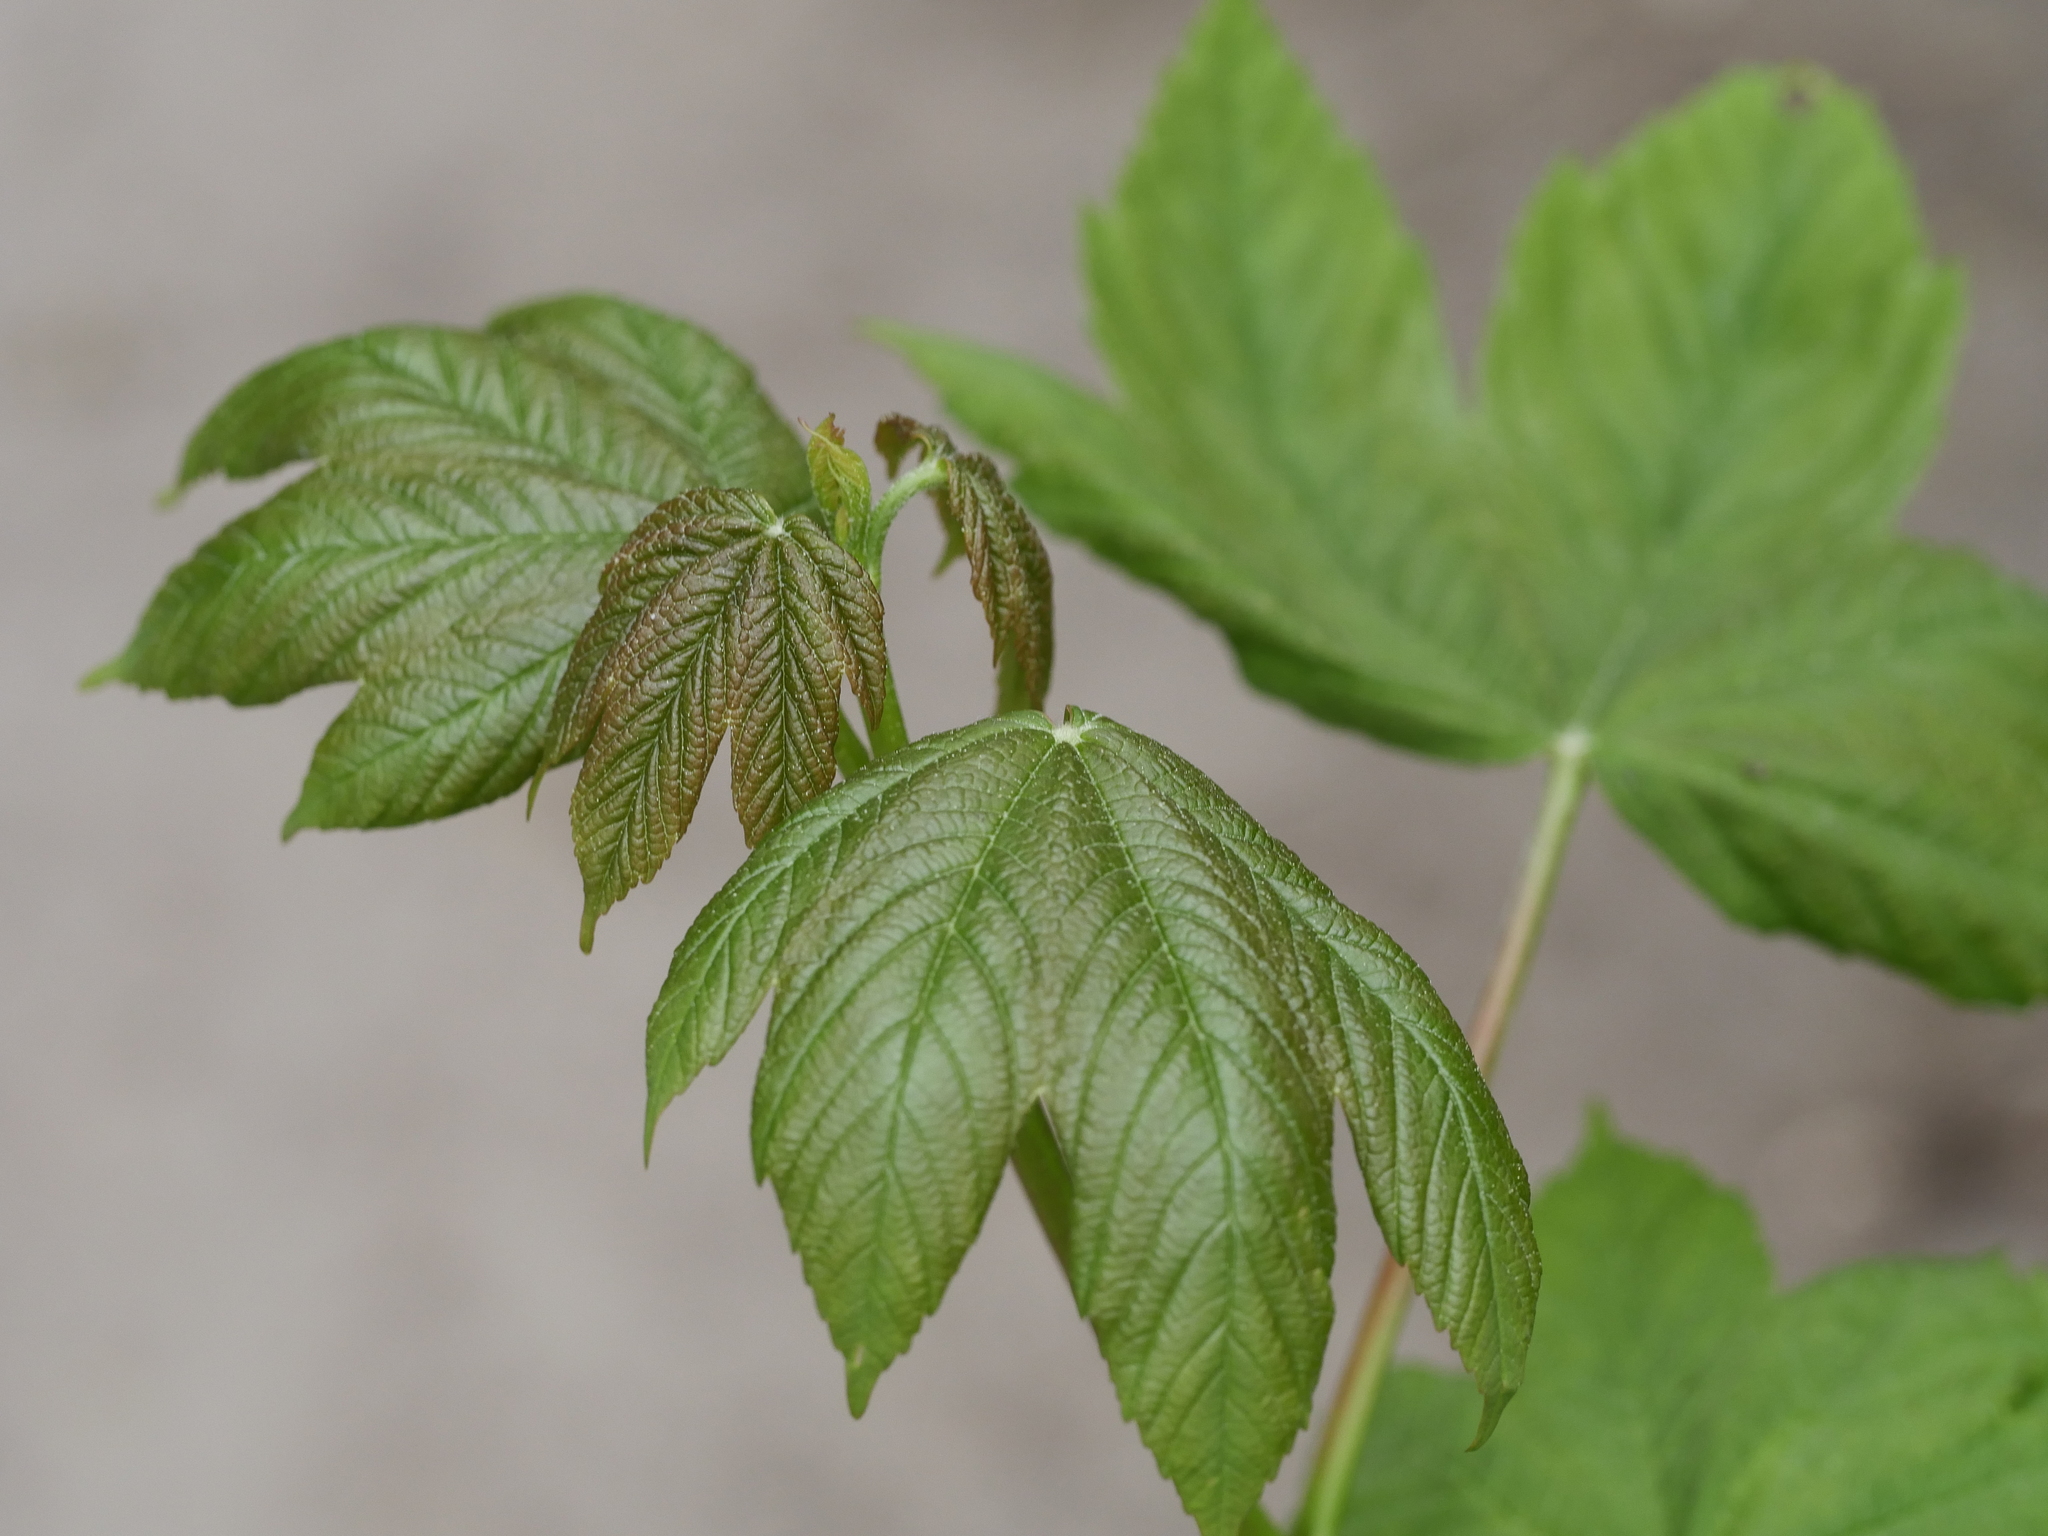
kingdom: Plantae
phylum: Tracheophyta
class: Magnoliopsida
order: Sapindales
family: Sapindaceae
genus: Acer
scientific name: Acer pseudoplatanus
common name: Sycamore
